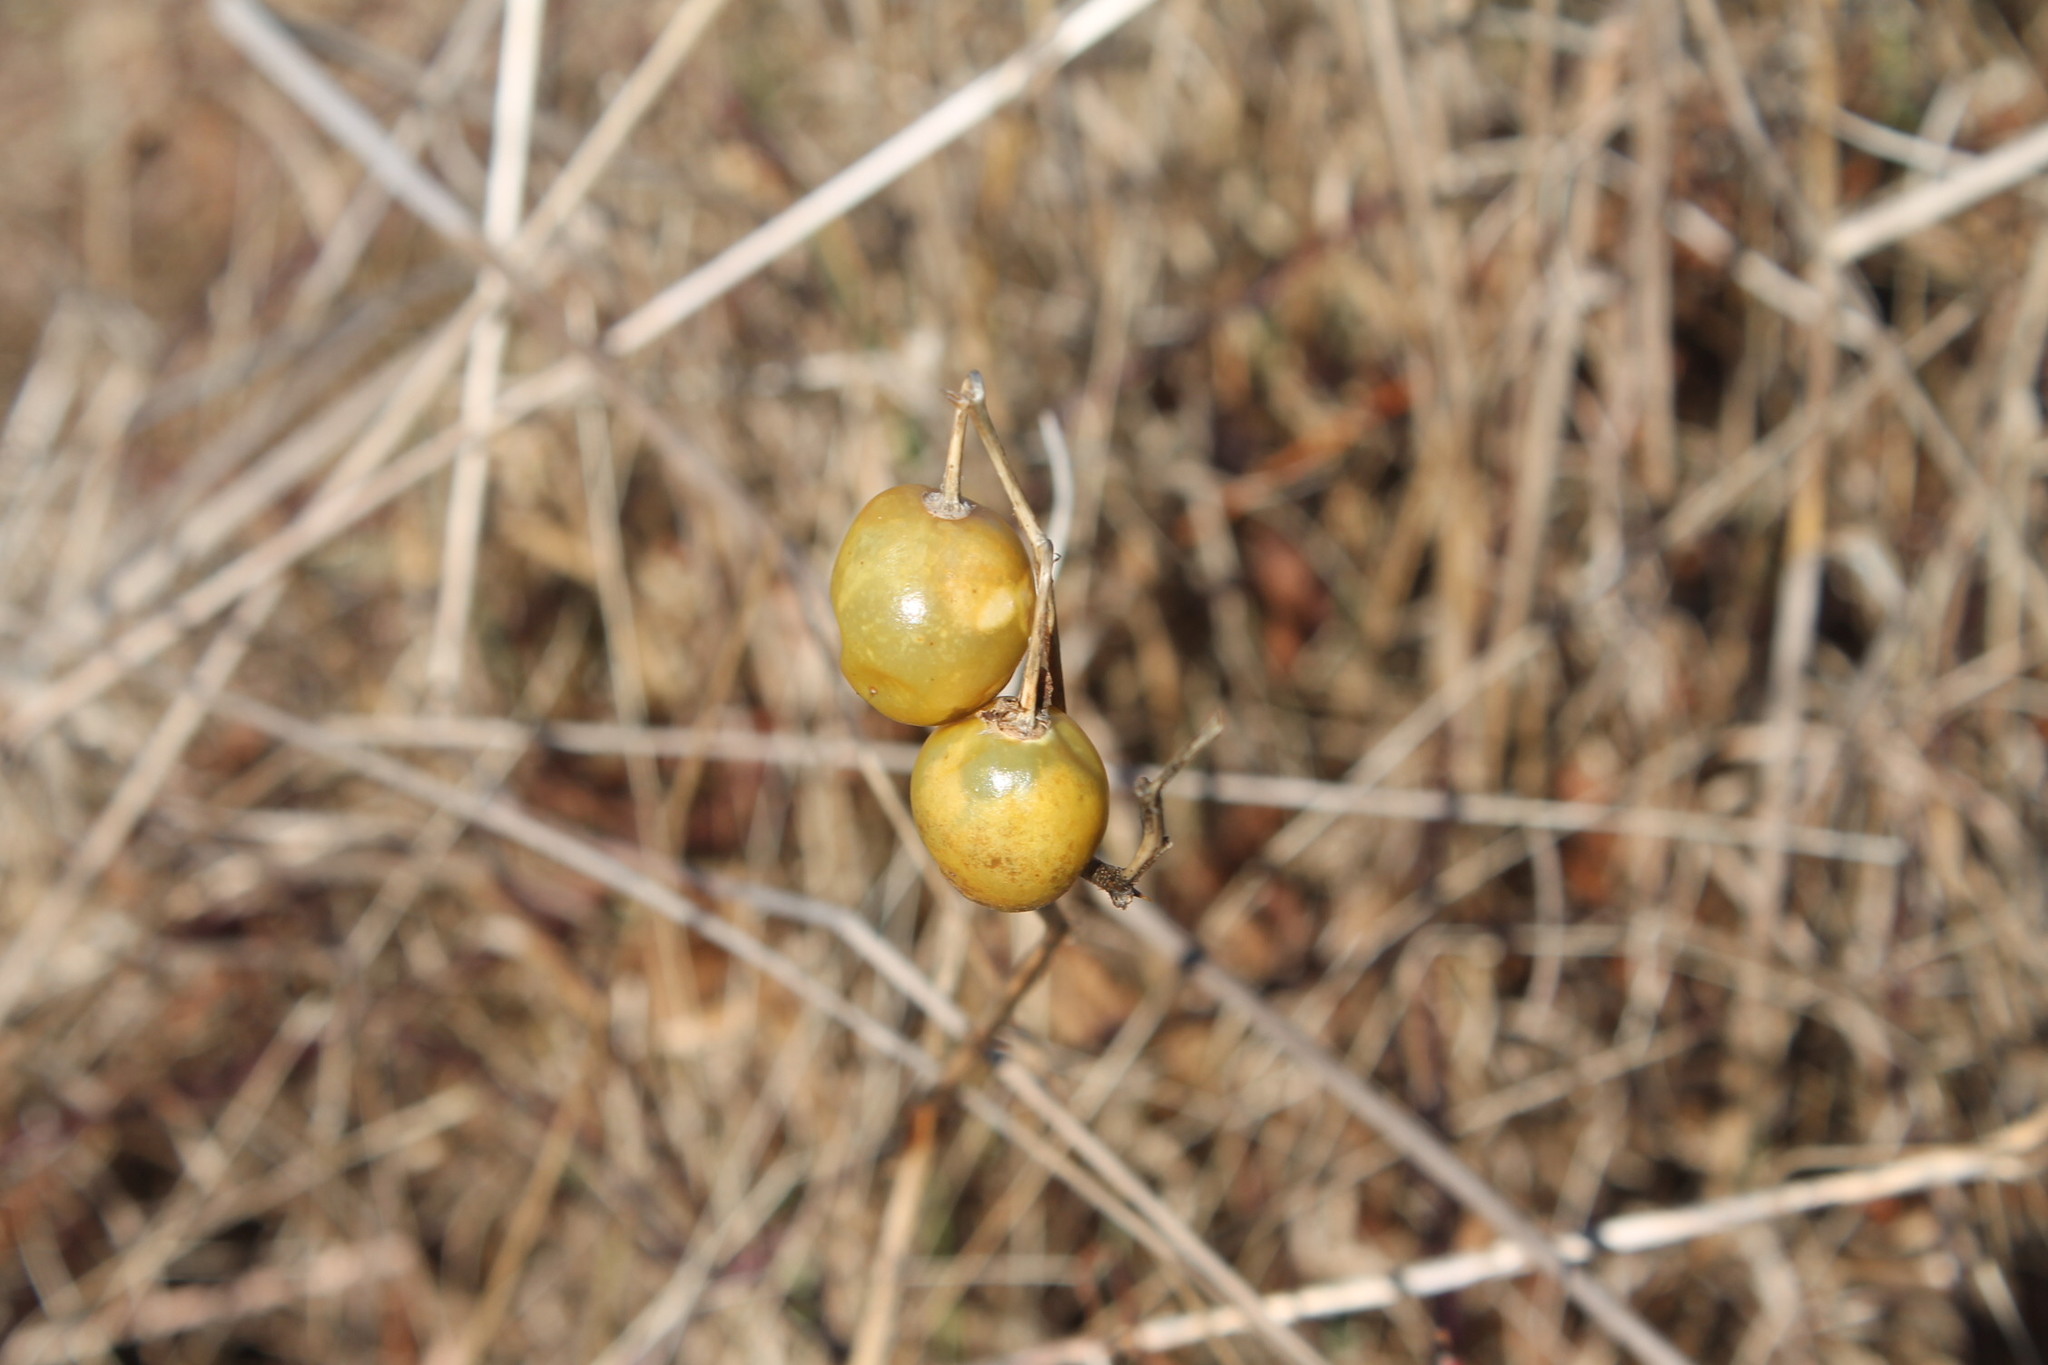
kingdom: Plantae
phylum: Tracheophyta
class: Magnoliopsida
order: Solanales
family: Solanaceae
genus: Solanum
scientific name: Solanum carolinense
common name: Horse-nettle
